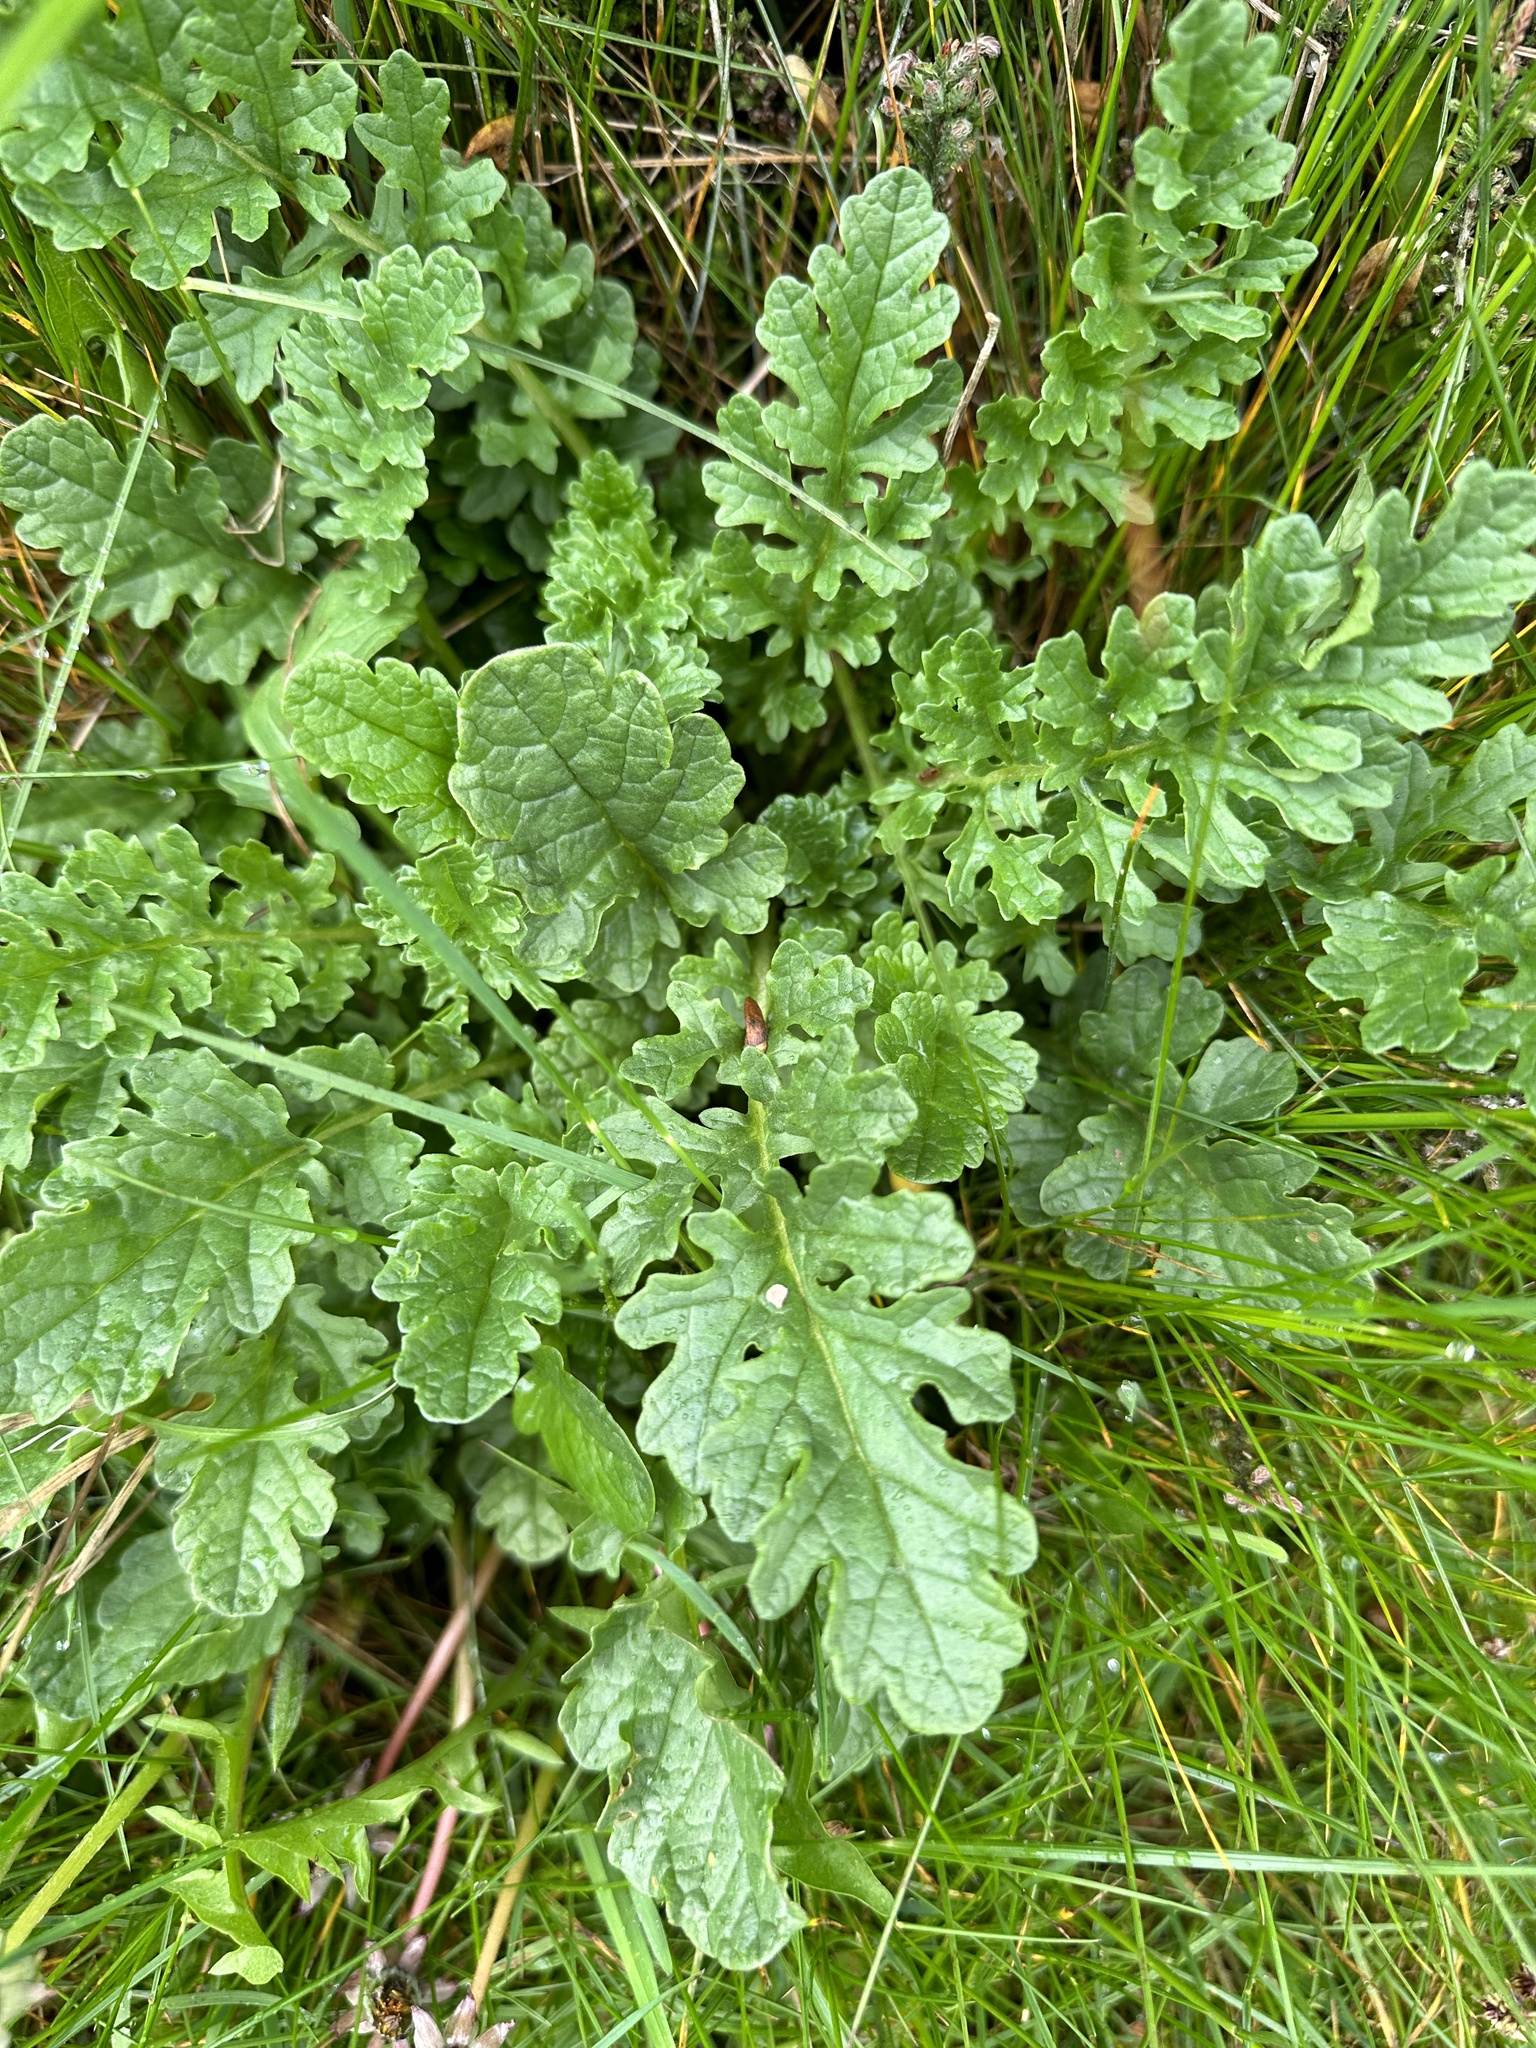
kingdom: Plantae
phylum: Tracheophyta
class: Magnoliopsida
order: Asterales
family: Asteraceae
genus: Jacobaea
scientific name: Jacobaea vulgaris
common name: Stinking willie
